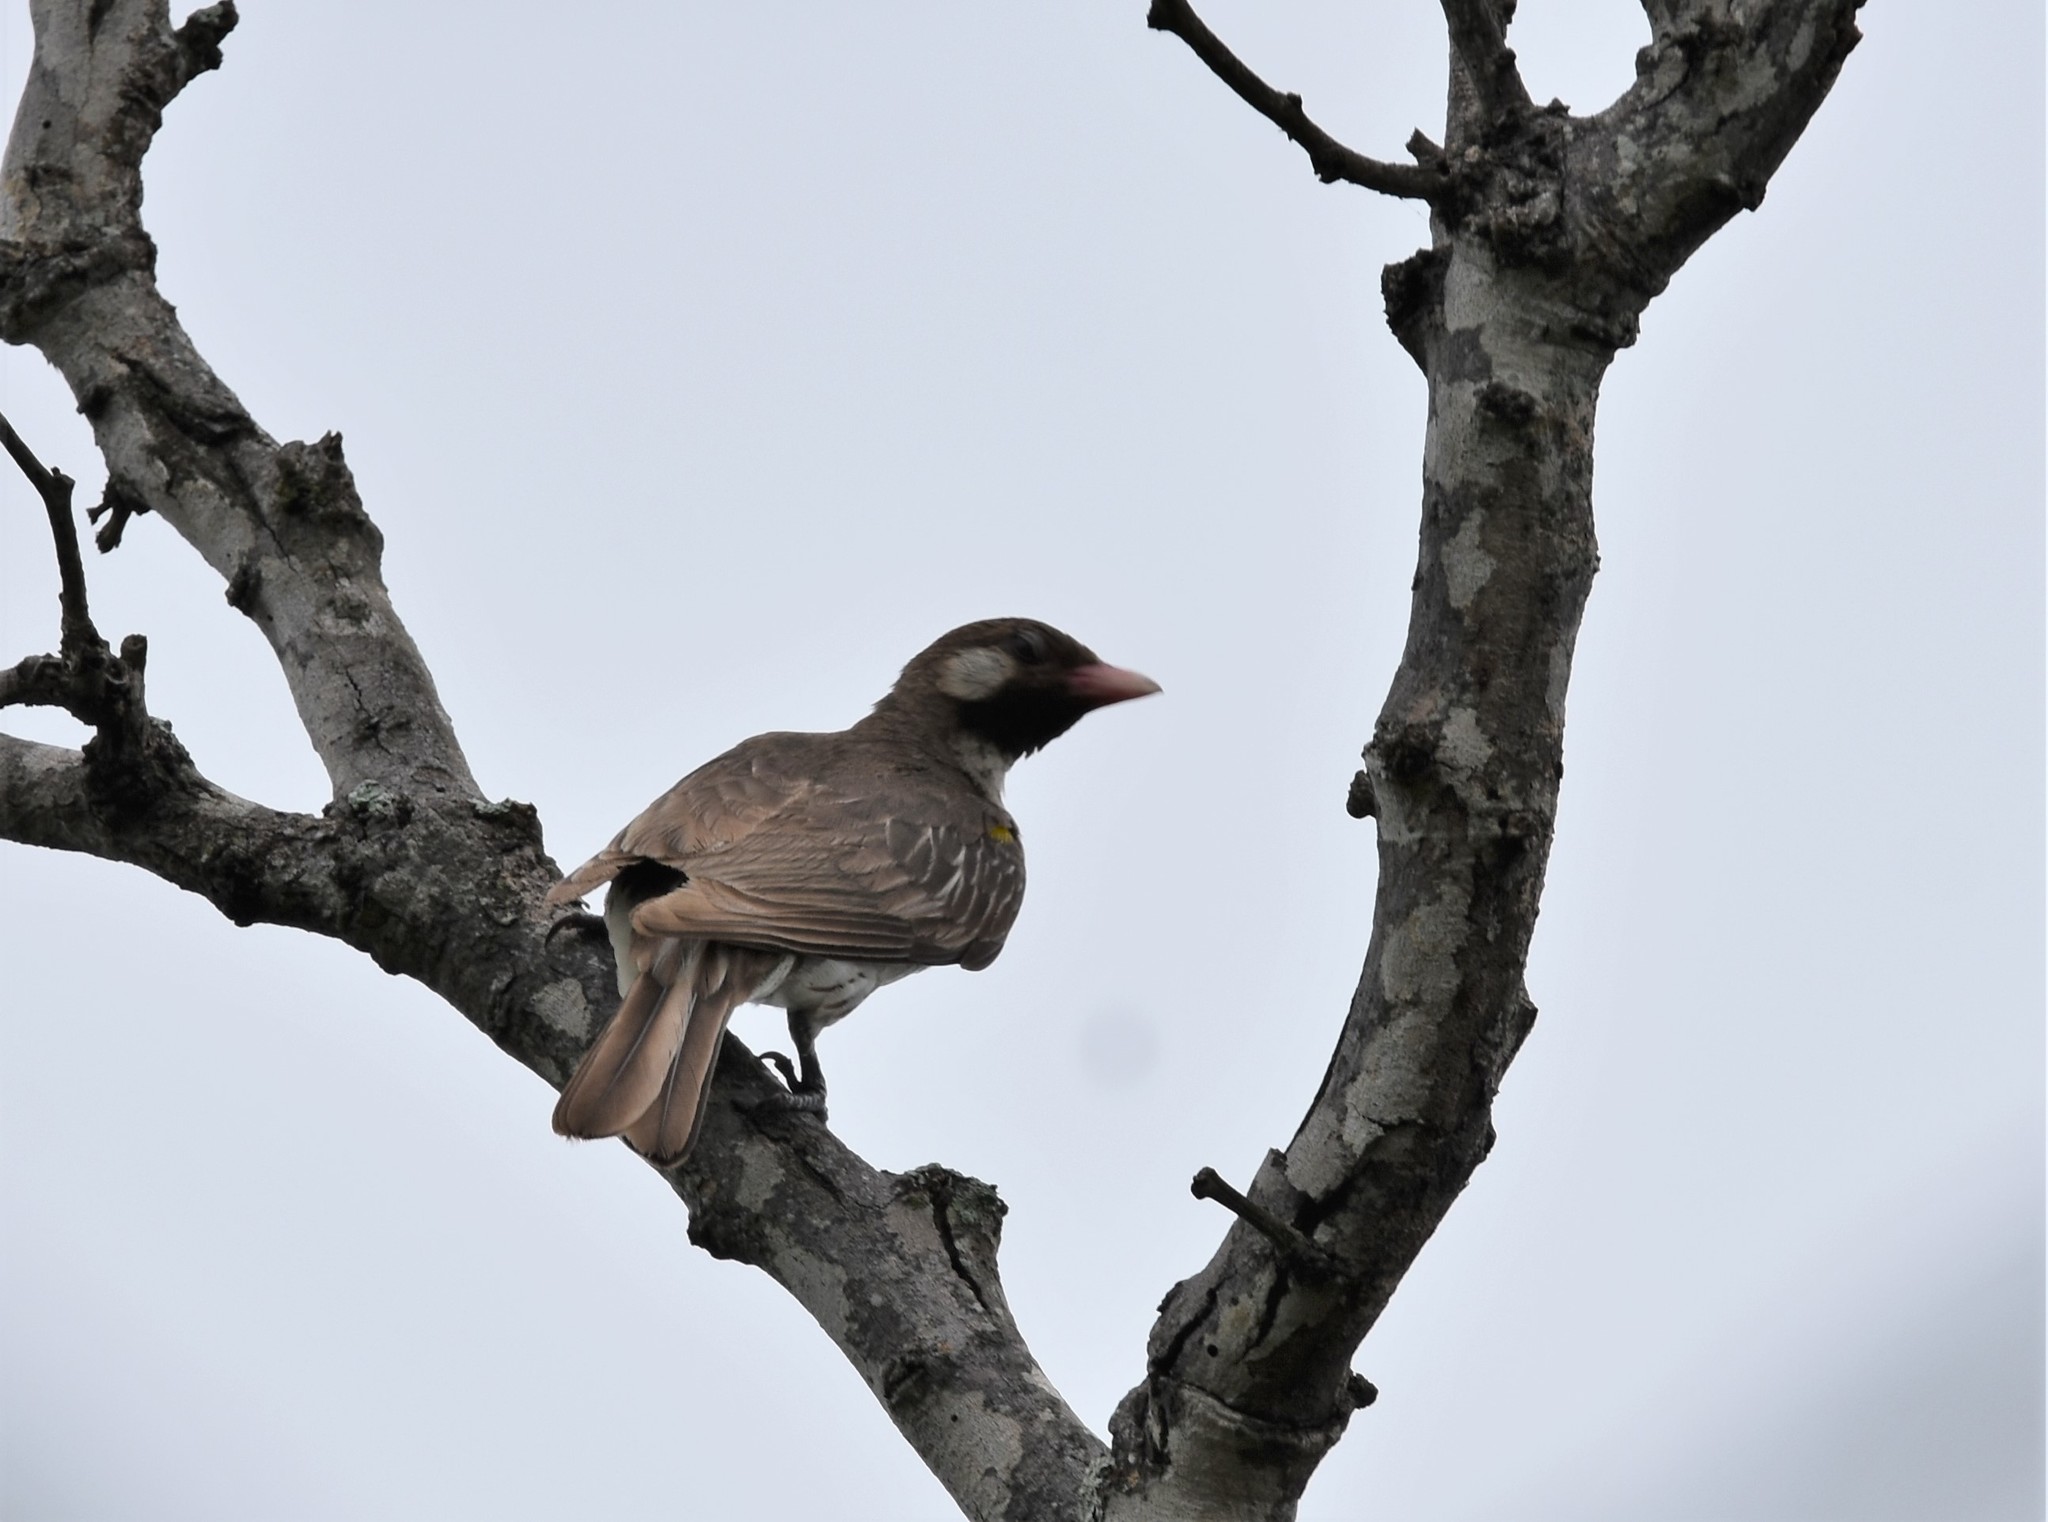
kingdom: Animalia
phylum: Chordata
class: Aves
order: Piciformes
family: Indicatoridae
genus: Indicator
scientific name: Indicator indicator
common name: Greater honeyguide
